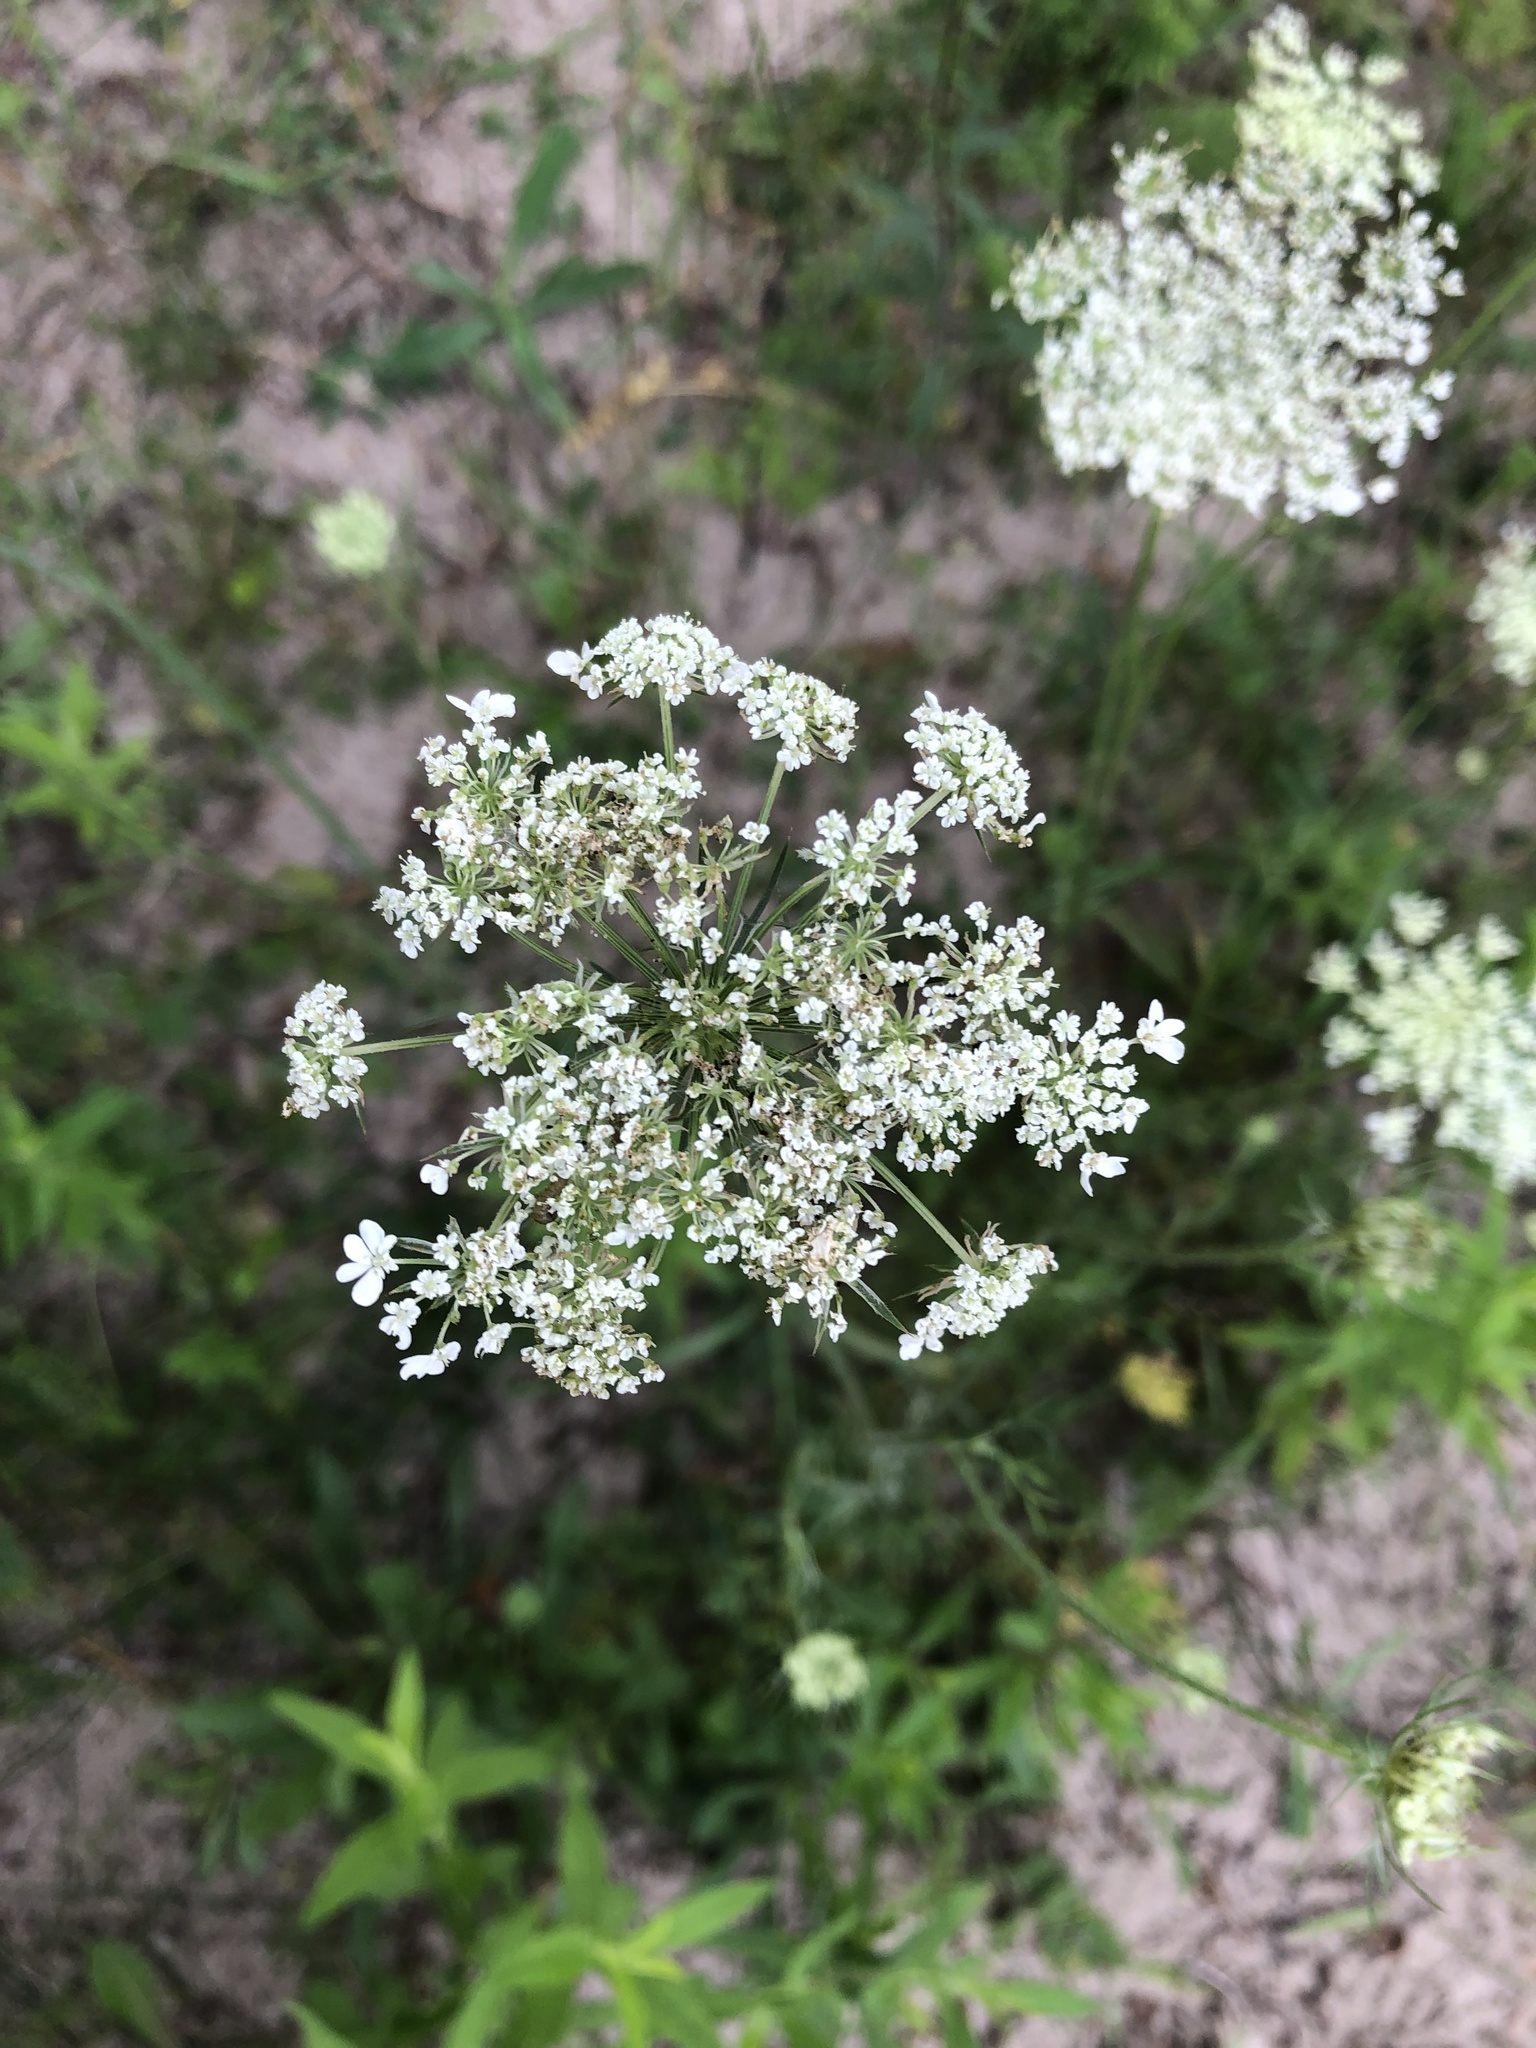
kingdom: Plantae
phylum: Tracheophyta
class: Magnoliopsida
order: Apiales
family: Apiaceae
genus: Daucus
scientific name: Daucus carota
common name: Wild carrot
